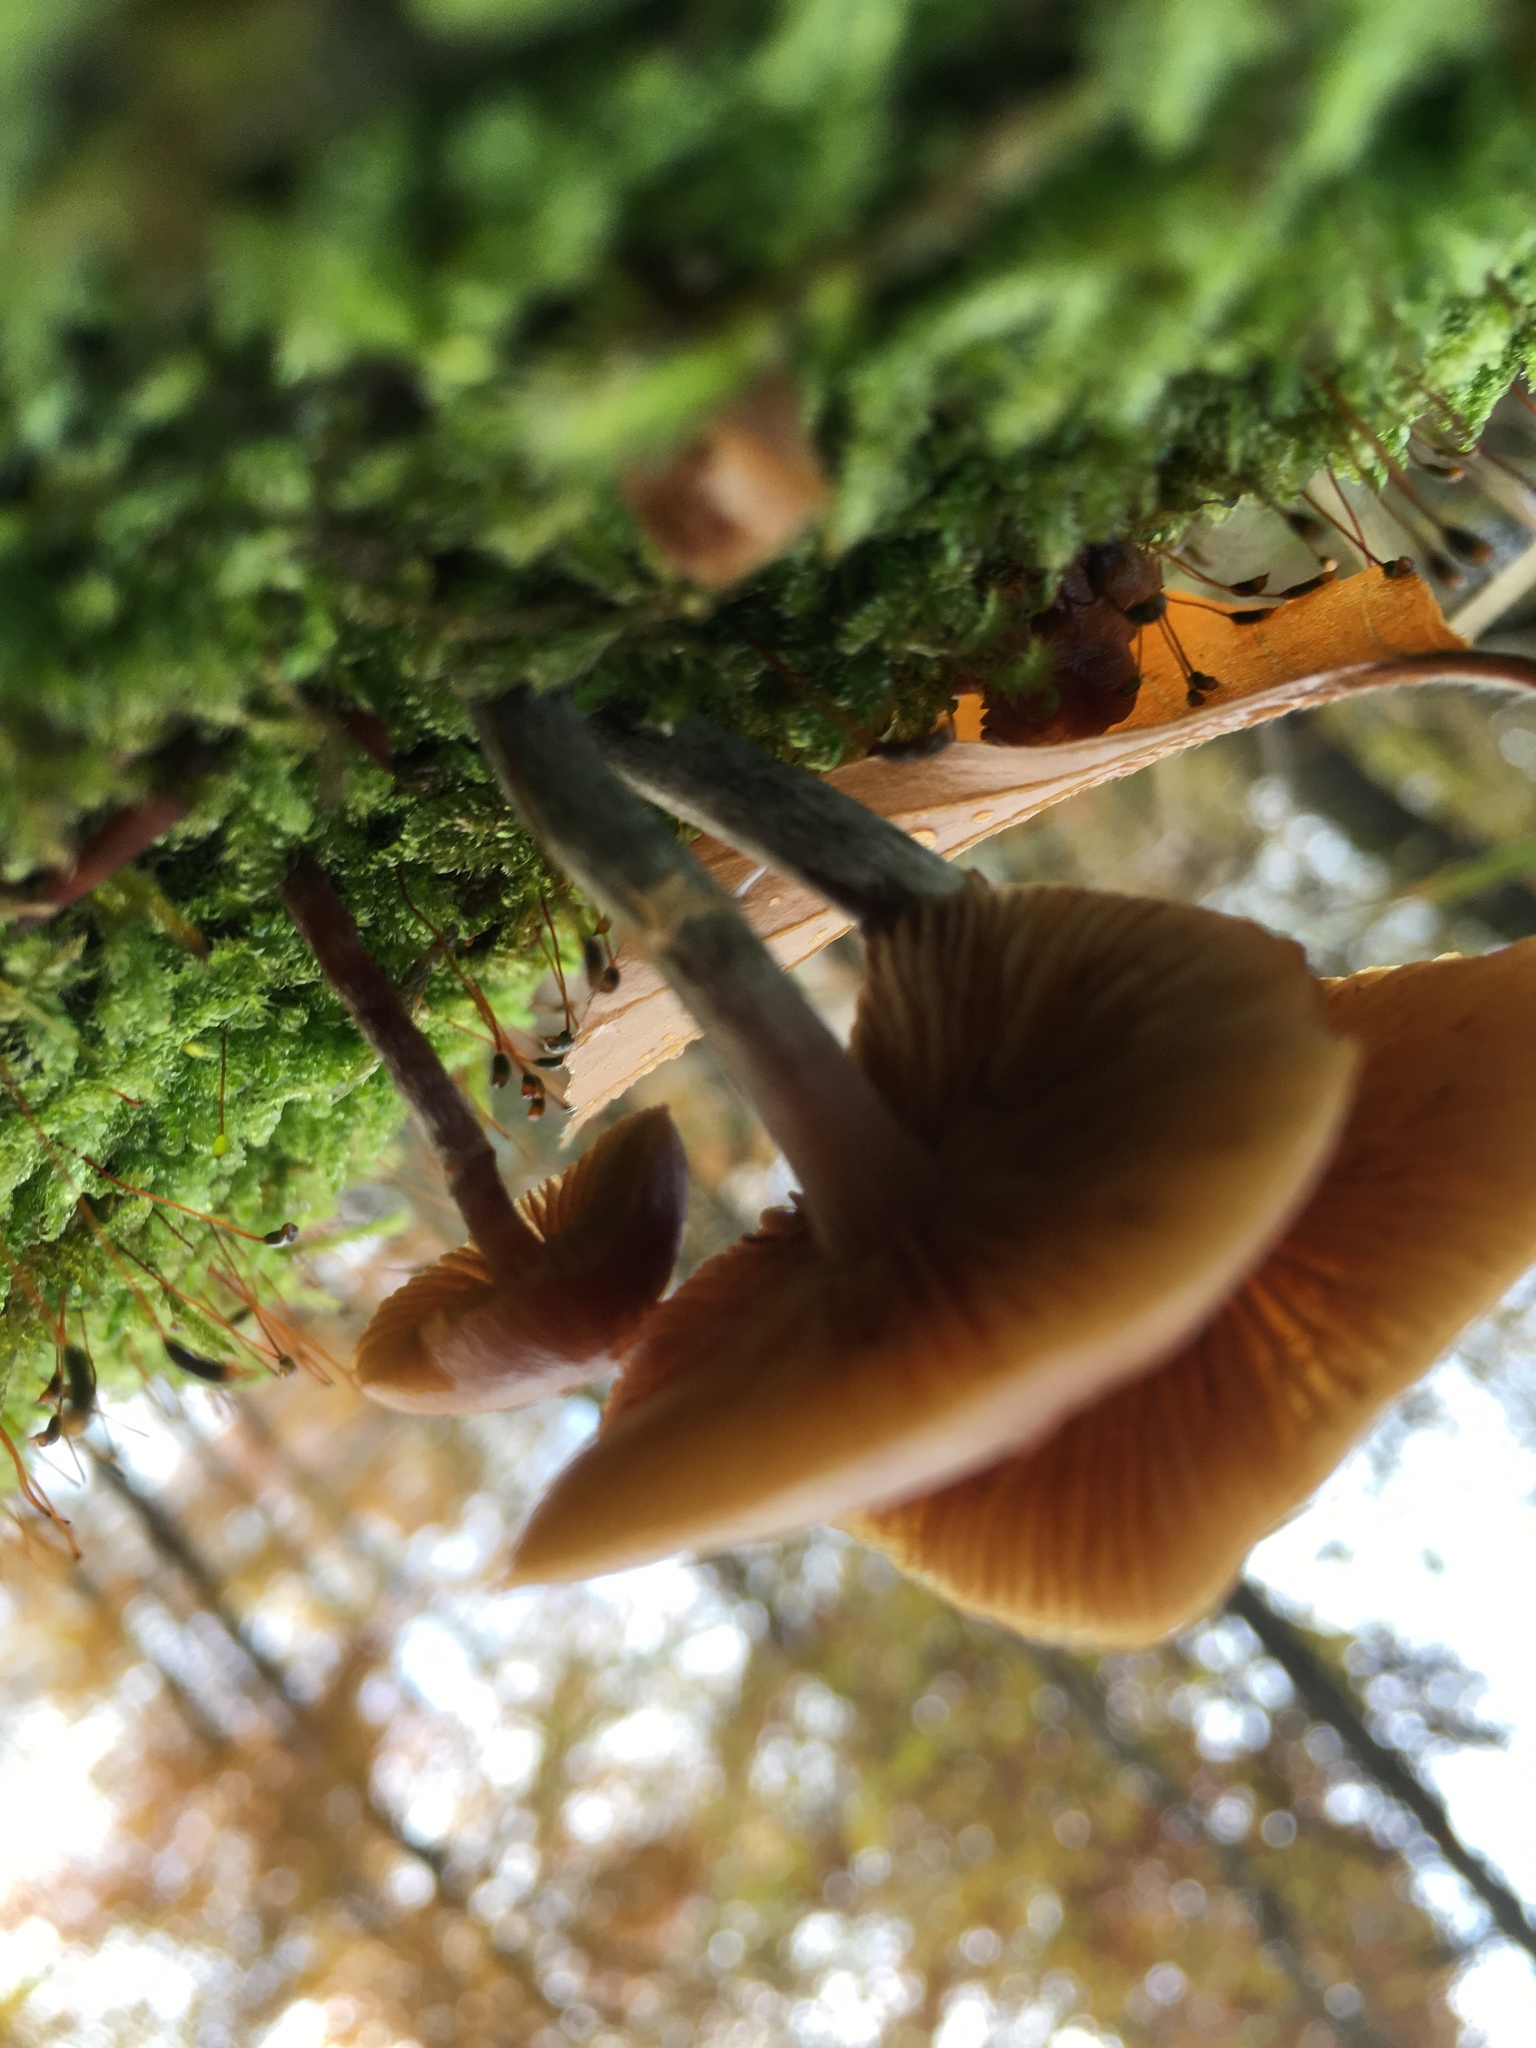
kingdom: Fungi
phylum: Basidiomycota
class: Agaricomycetes
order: Agaricales
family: Hymenogastraceae
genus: Galerina
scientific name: Galerina marginata
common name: Funeral bell
